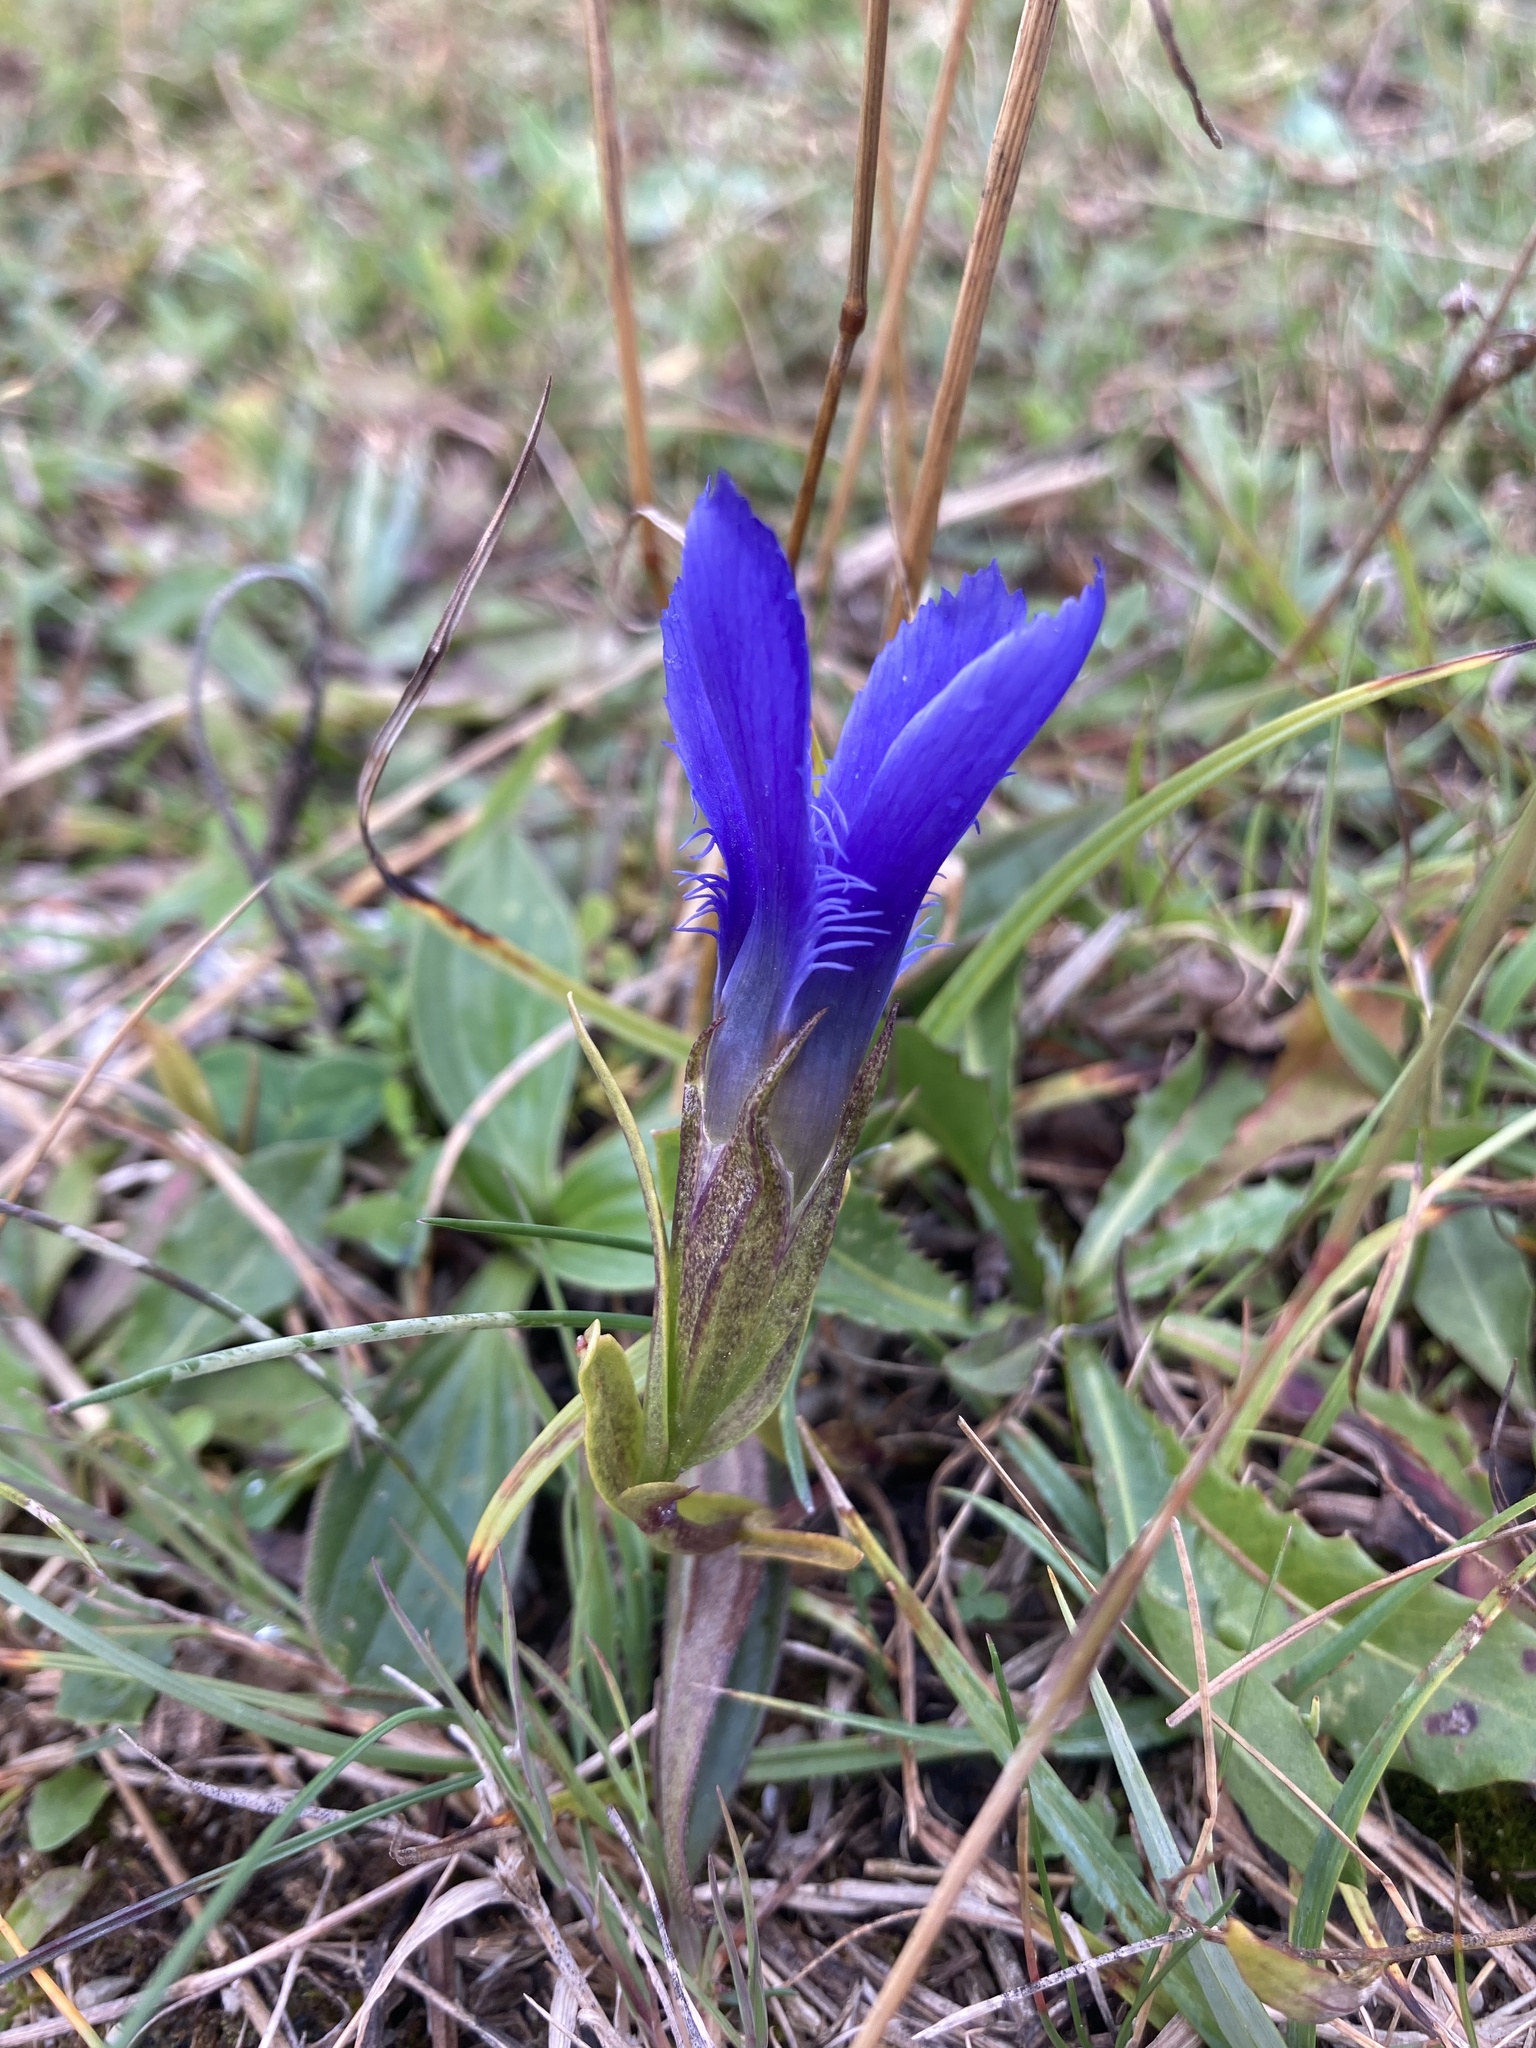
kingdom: Plantae
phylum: Tracheophyta
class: Magnoliopsida
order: Gentianales
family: Gentianaceae
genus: Gentianopsis
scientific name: Gentianopsis ciliata
